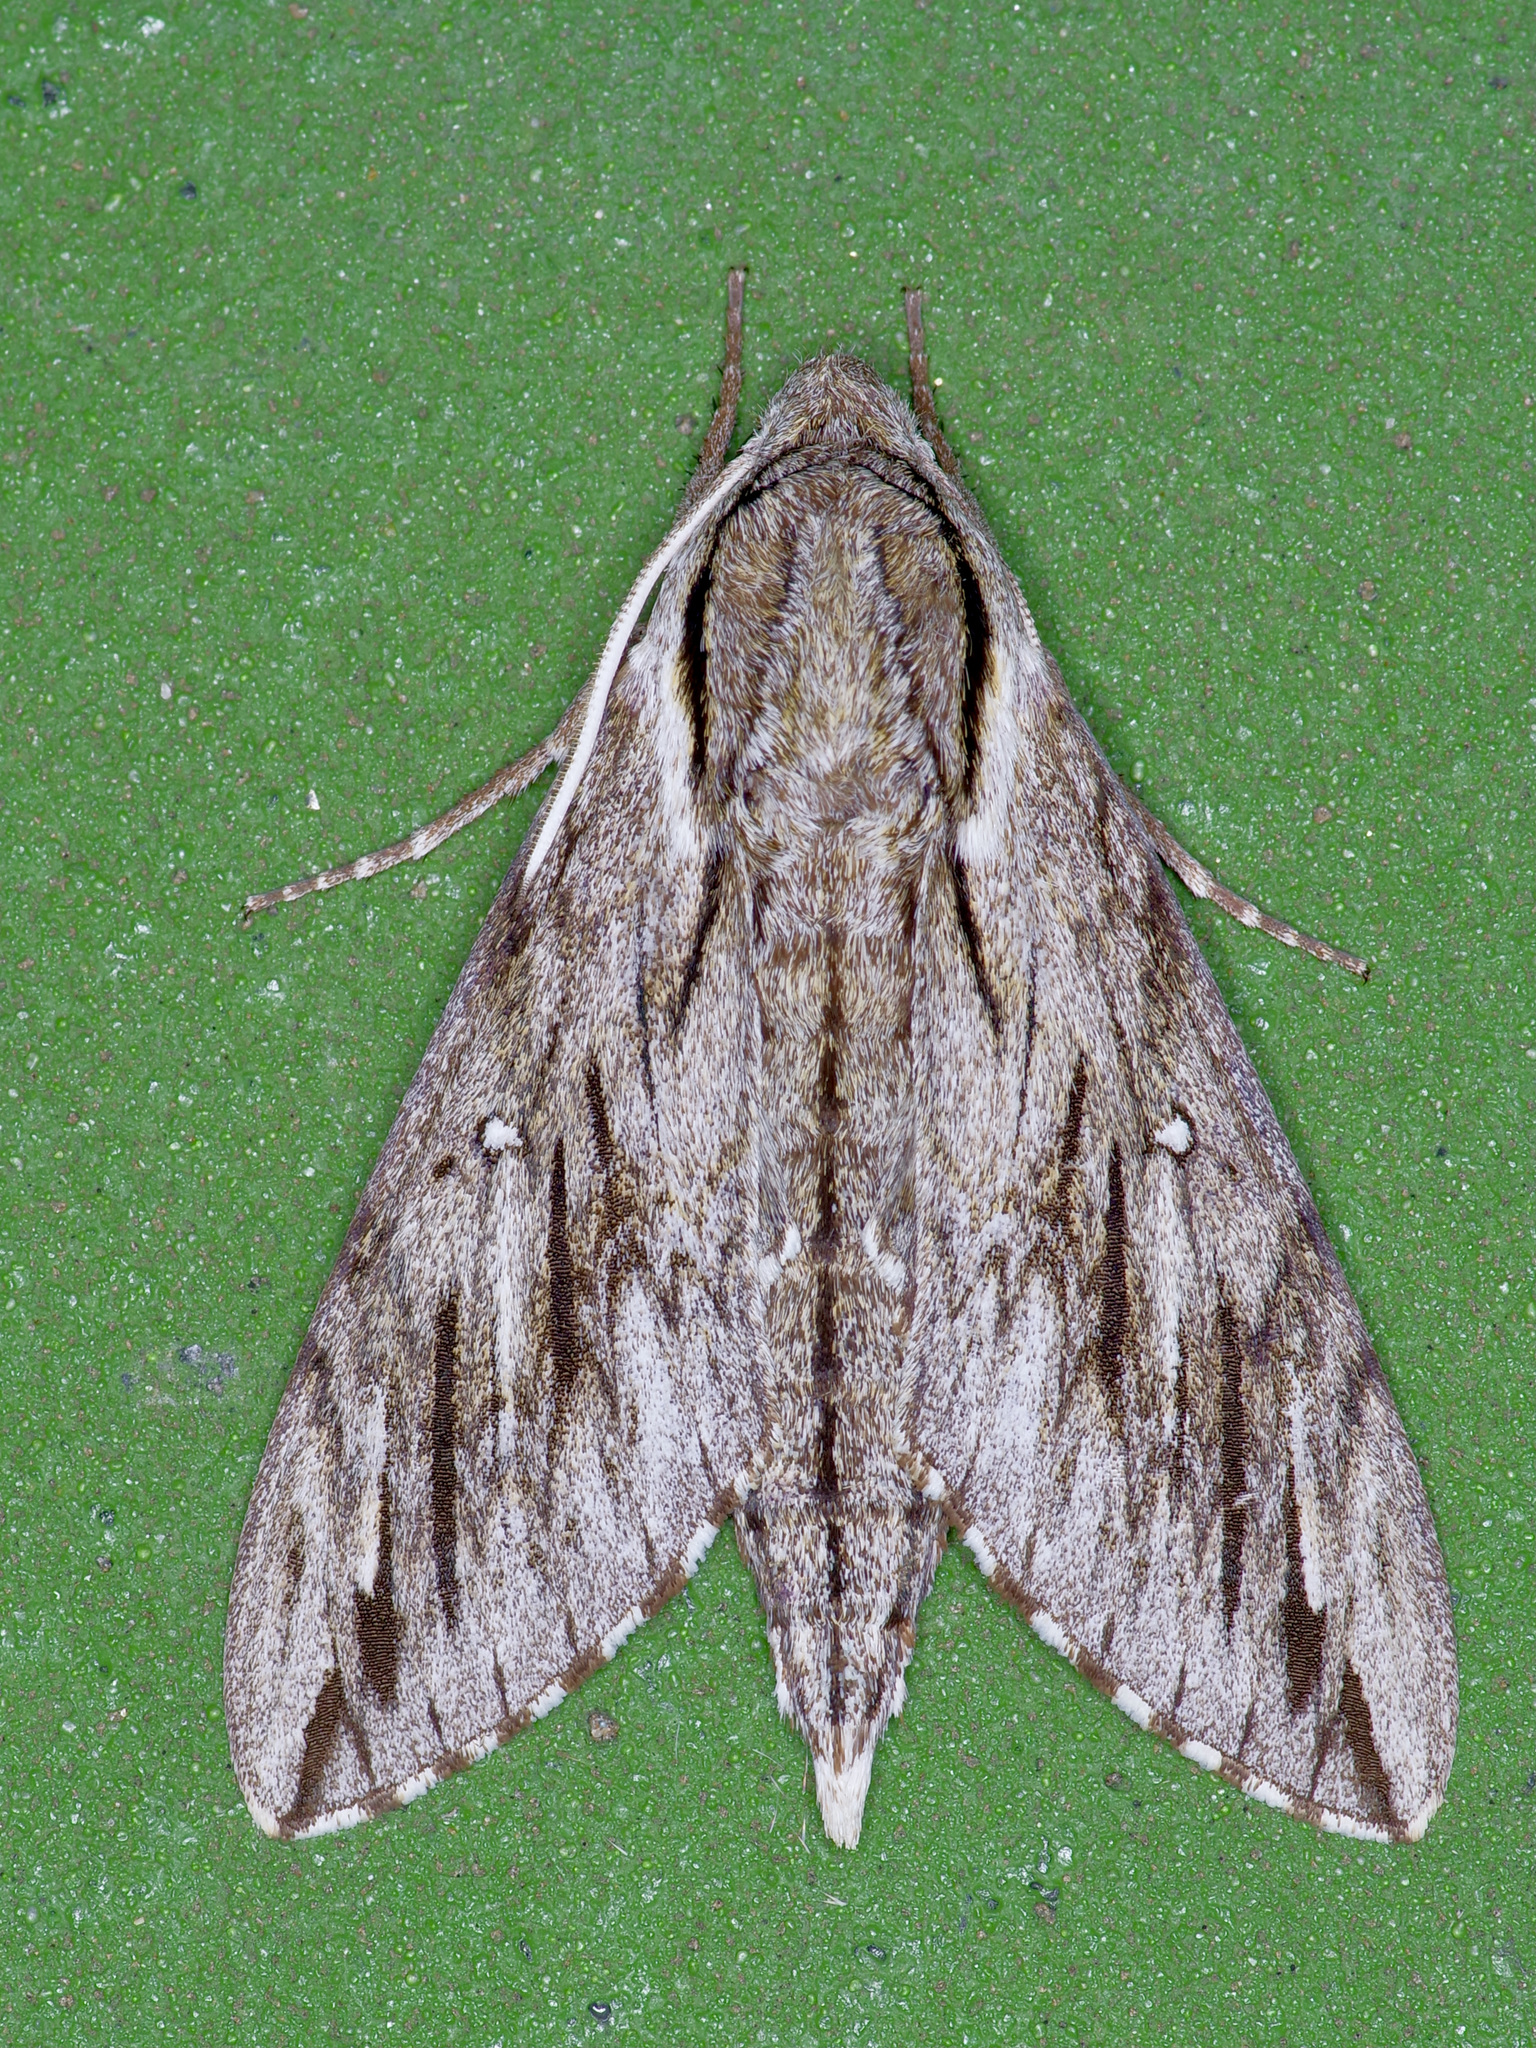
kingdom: Animalia
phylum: Arthropoda
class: Insecta
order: Lepidoptera
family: Sphingidae
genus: Paratrea
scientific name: Paratrea plebeja
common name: Plebian sphinx
